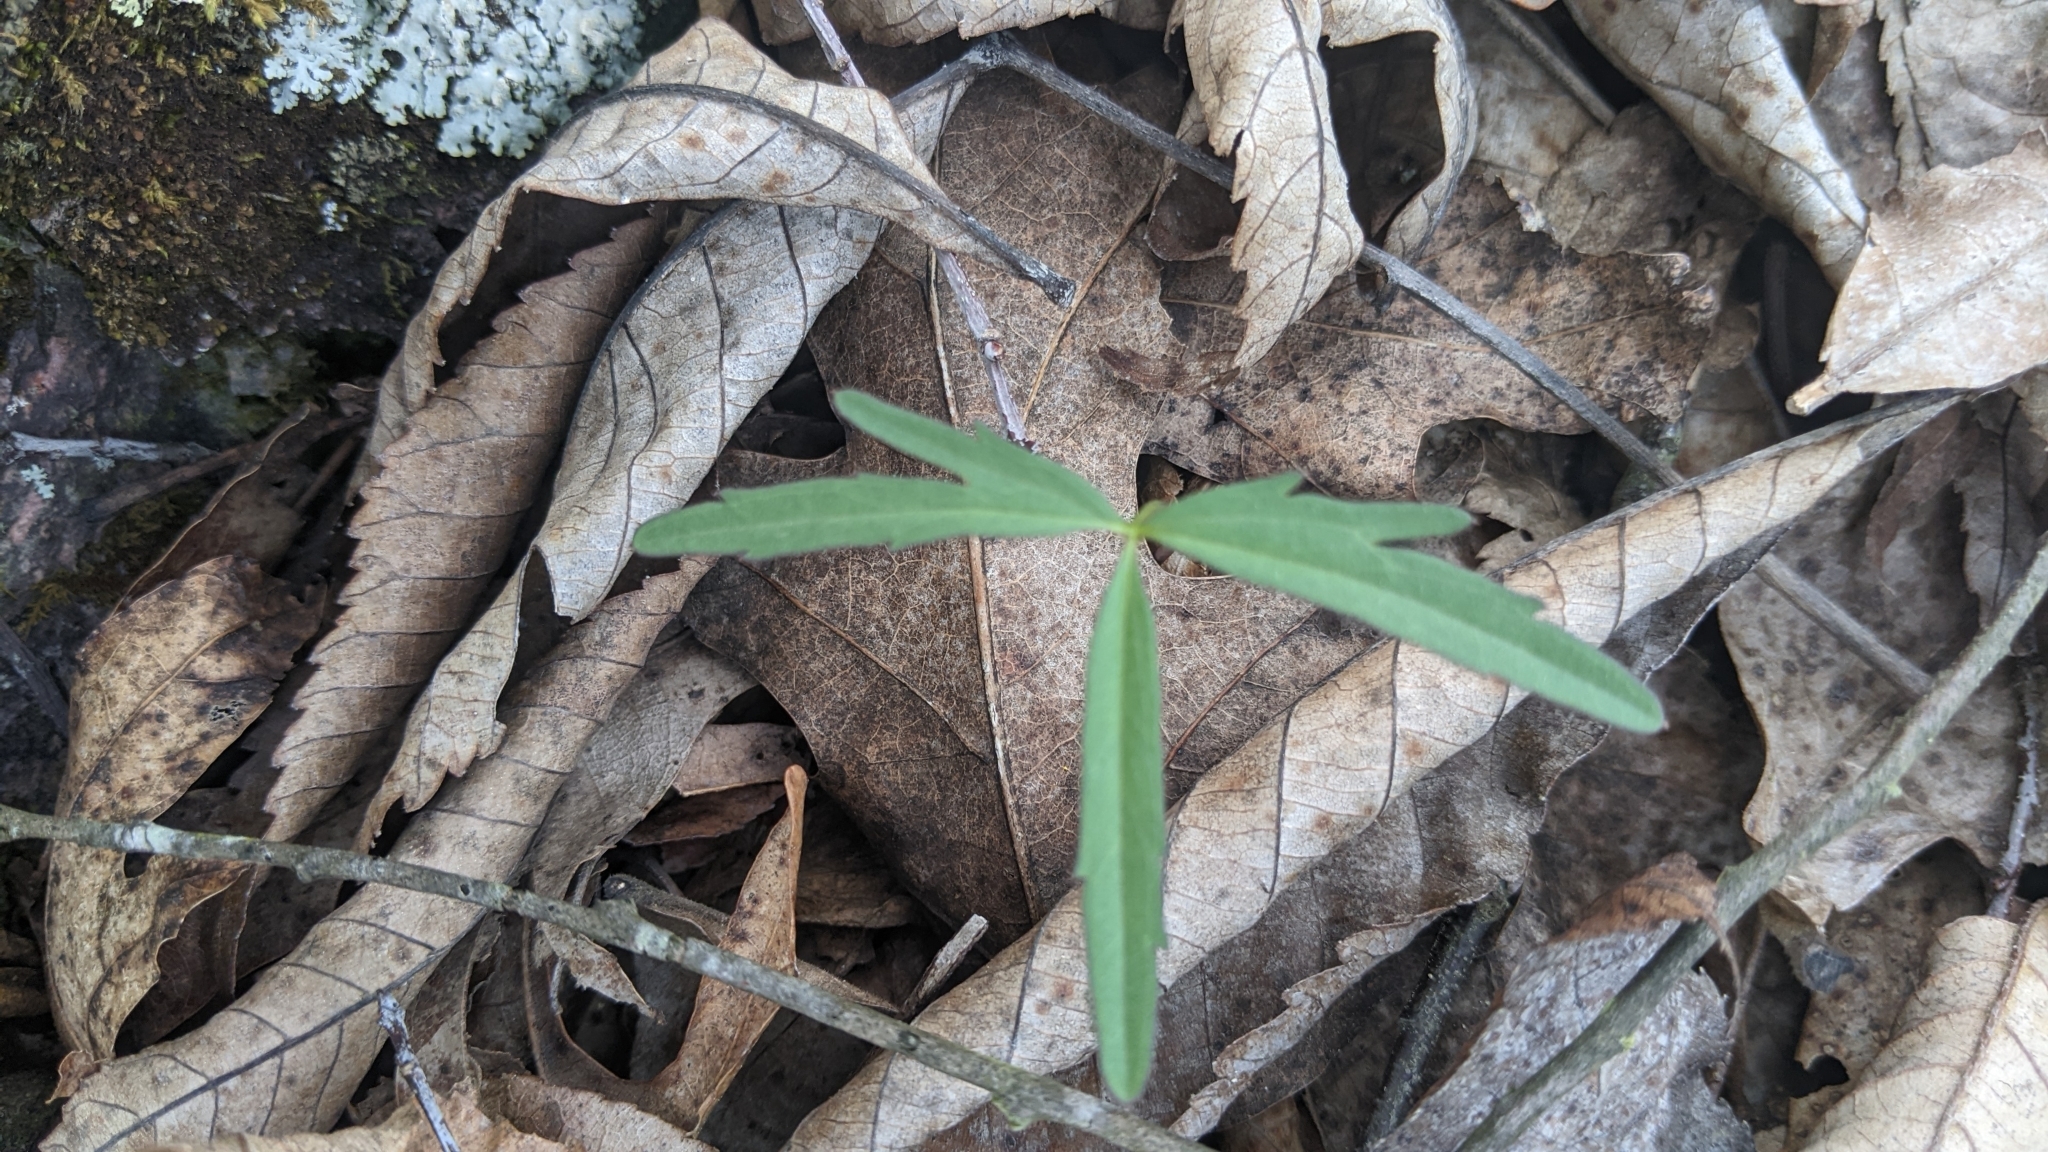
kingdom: Plantae
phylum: Tracheophyta
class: Magnoliopsida
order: Brassicales
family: Brassicaceae
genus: Cardamine
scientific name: Cardamine concatenata
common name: Cut-leaf toothcup
